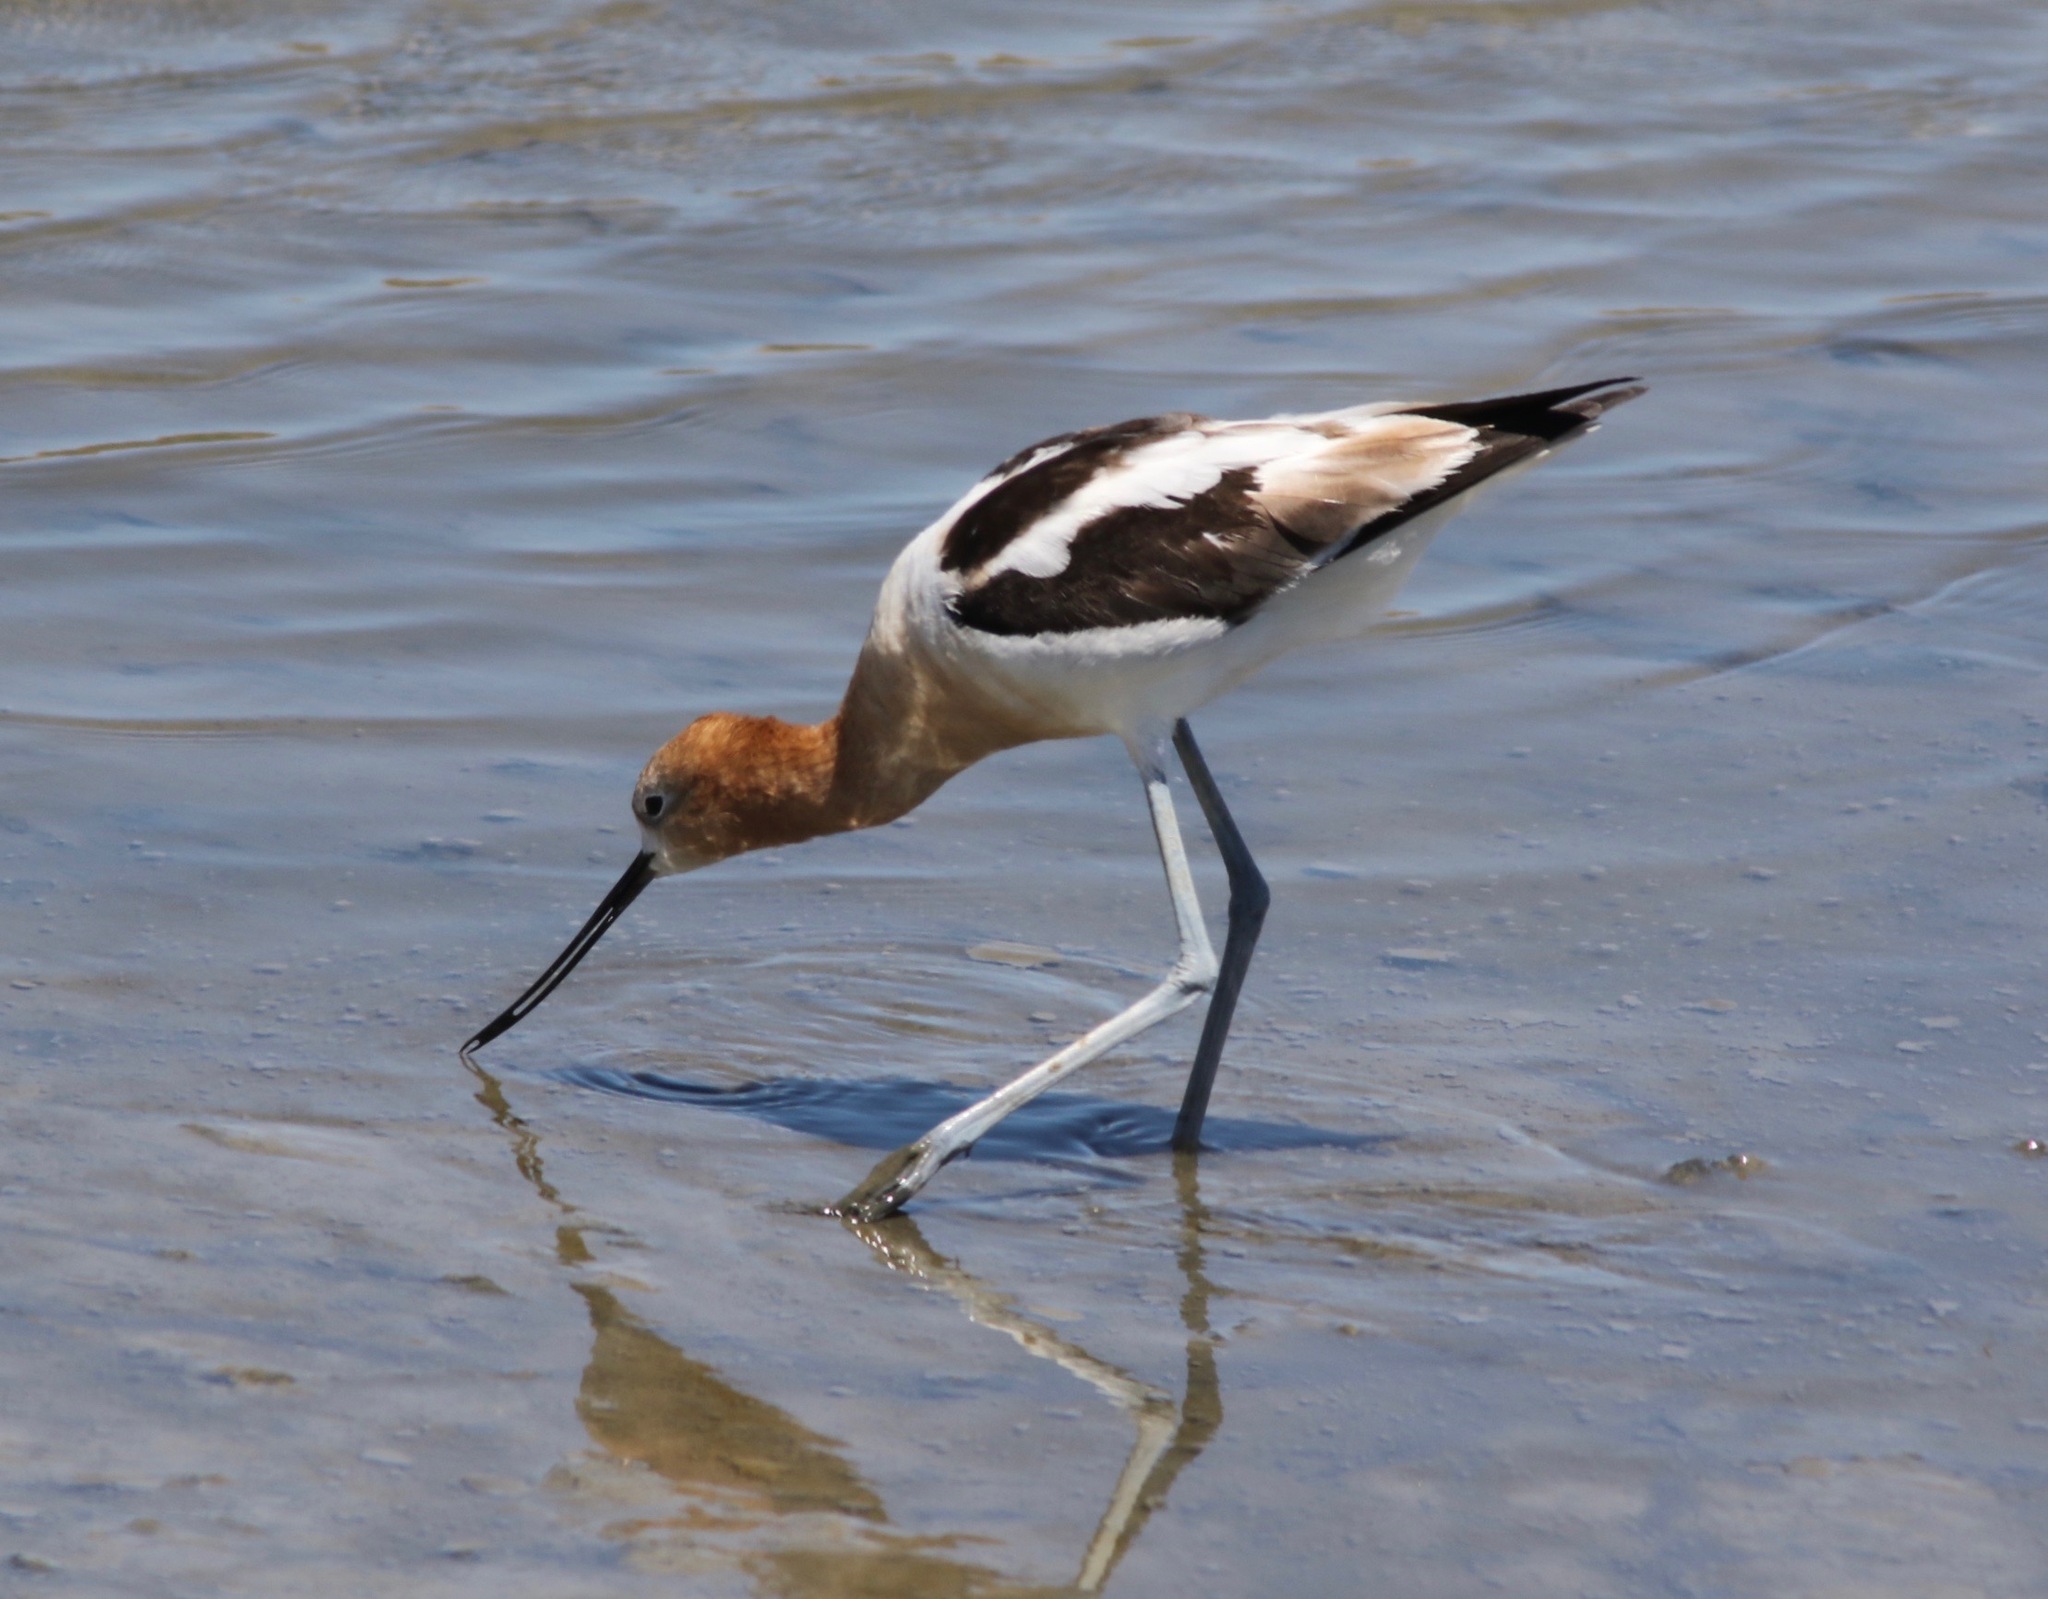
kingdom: Animalia
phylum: Chordata
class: Aves
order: Charadriiformes
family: Recurvirostridae
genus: Recurvirostra
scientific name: Recurvirostra americana
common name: American avocet
